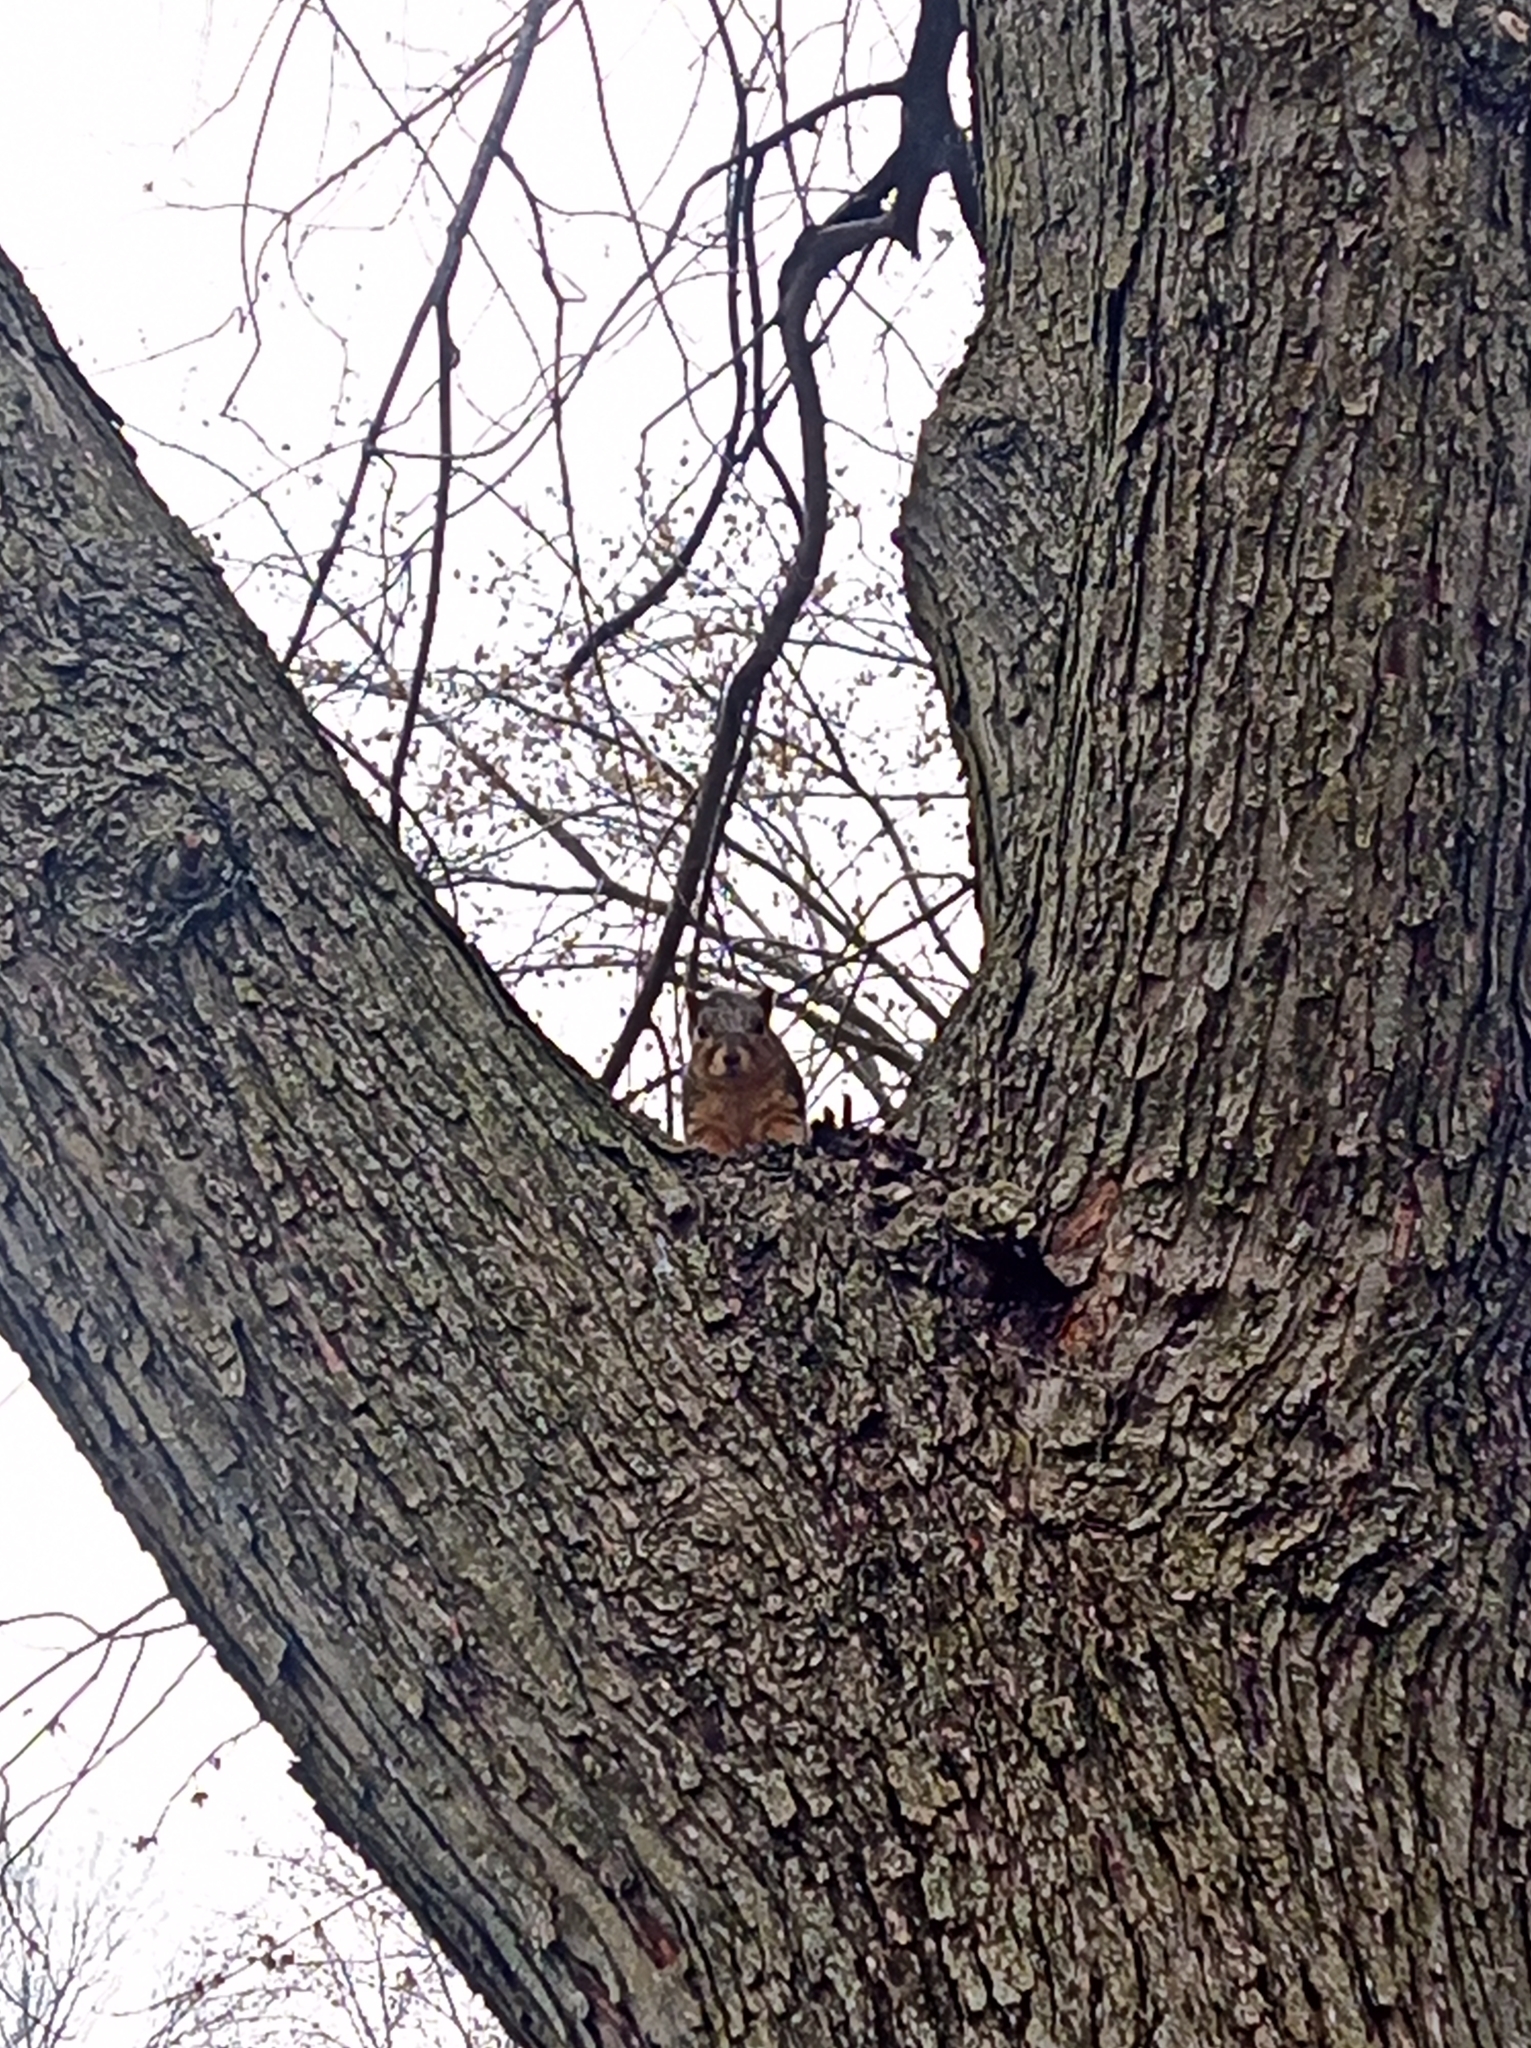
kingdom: Animalia
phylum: Chordata
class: Mammalia
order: Rodentia
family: Sciuridae
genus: Sciurus
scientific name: Sciurus niger
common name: Fox squirrel
